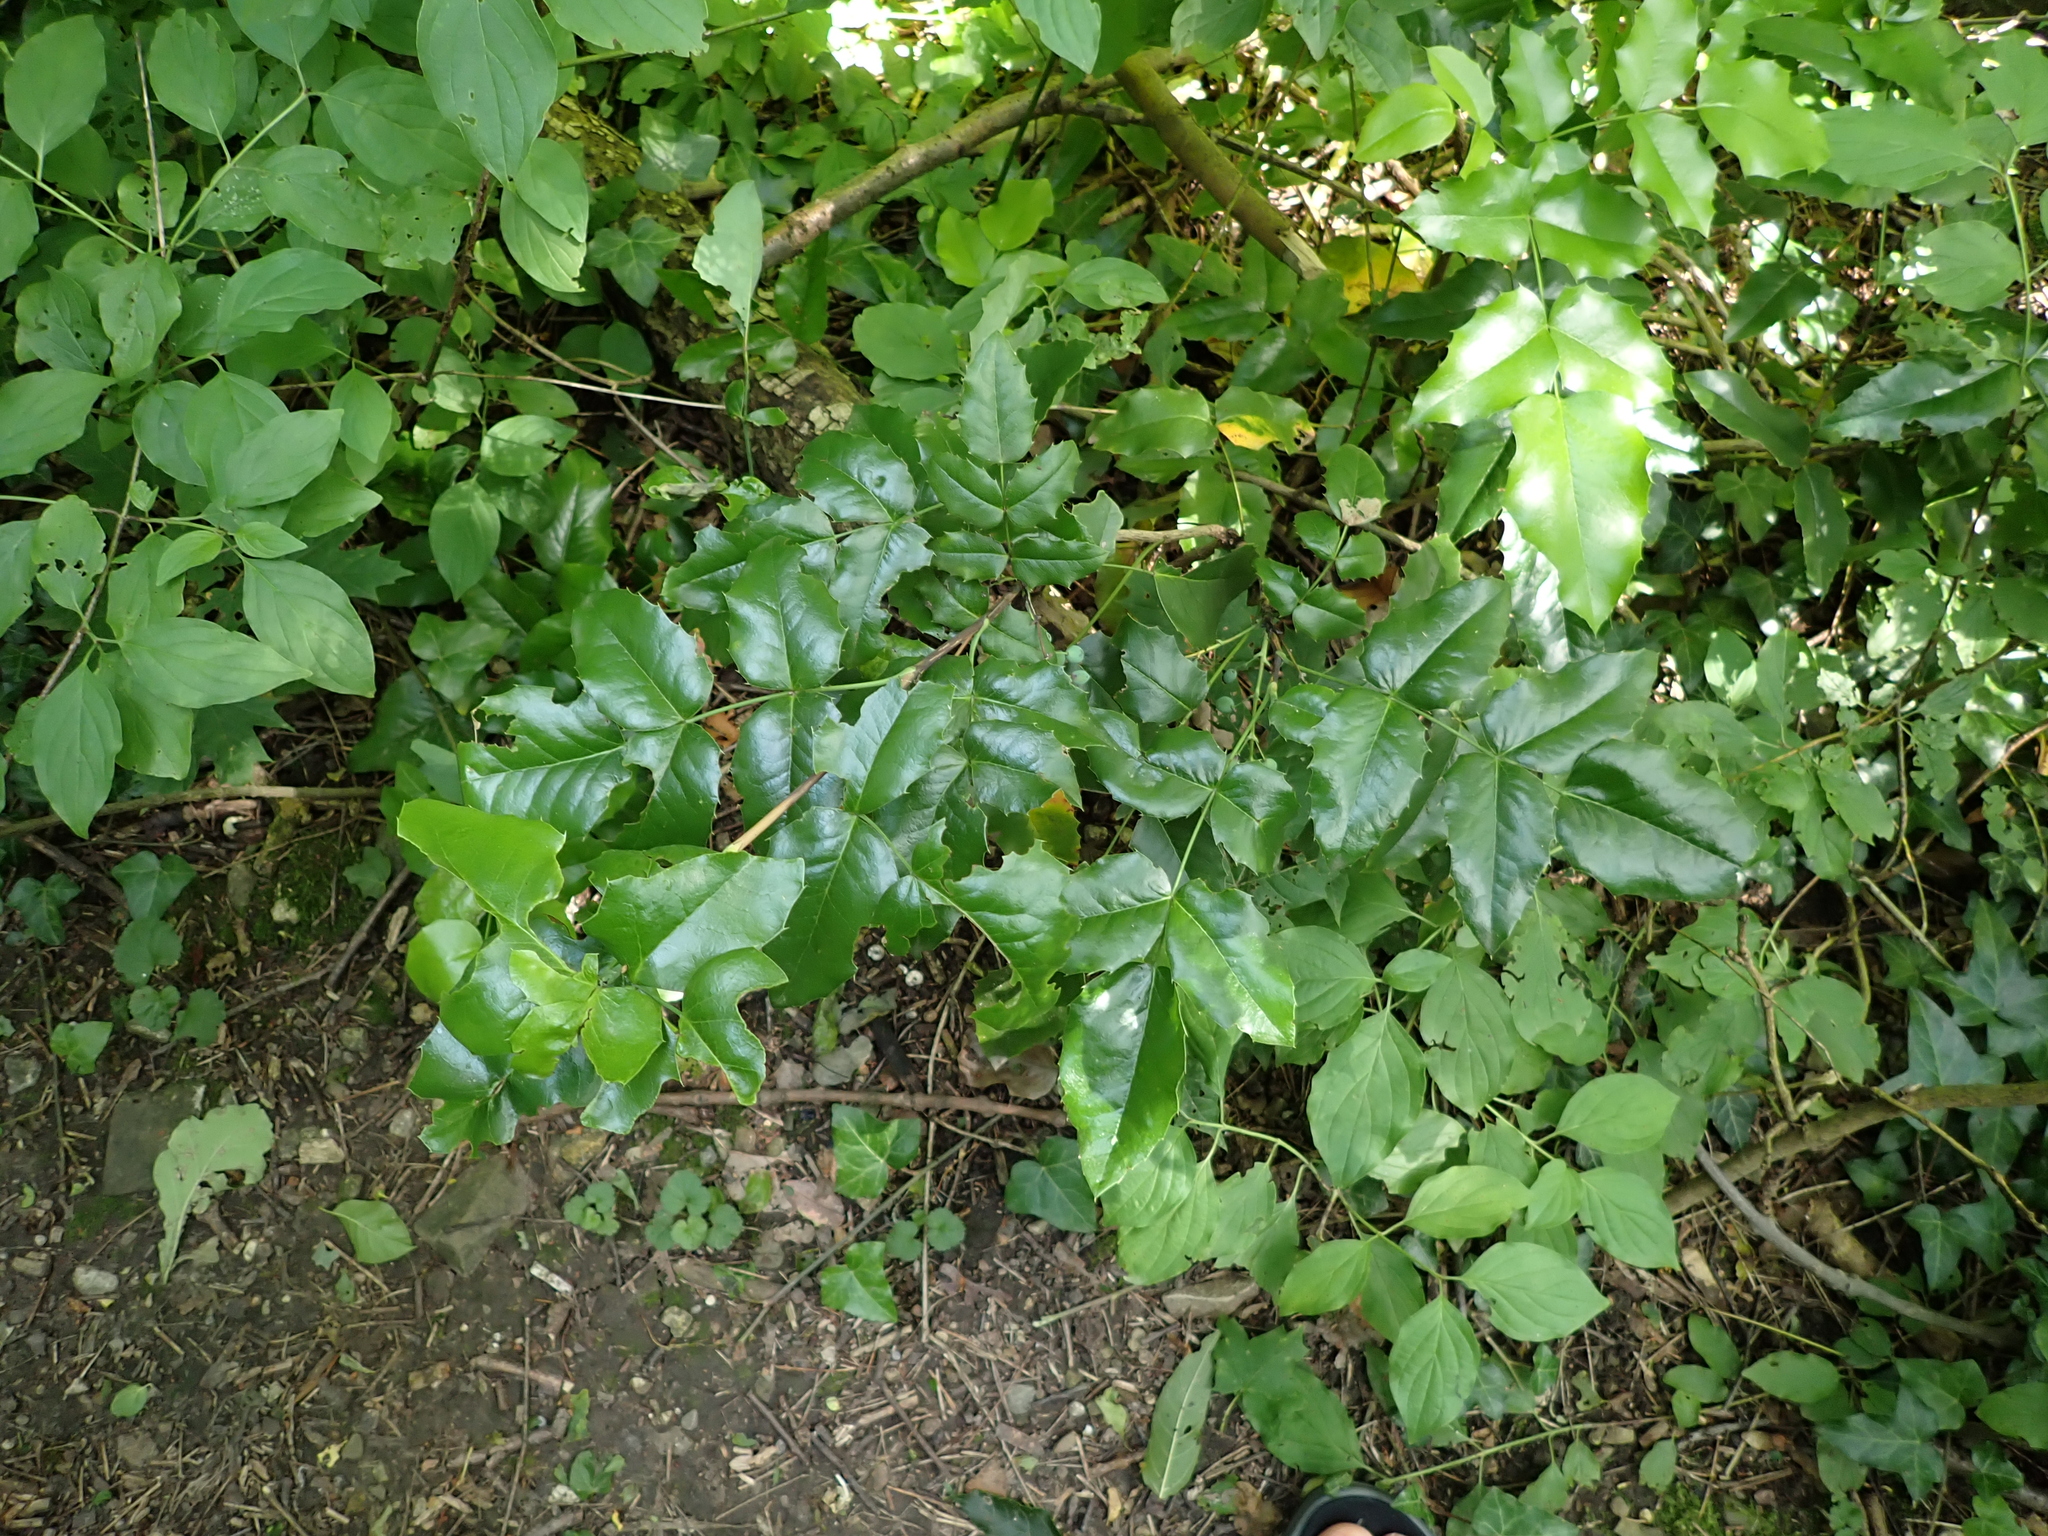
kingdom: Plantae
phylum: Tracheophyta
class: Magnoliopsida
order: Ranunculales
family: Berberidaceae
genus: Mahonia
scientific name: Mahonia aquifolium
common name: Oregon-grape
